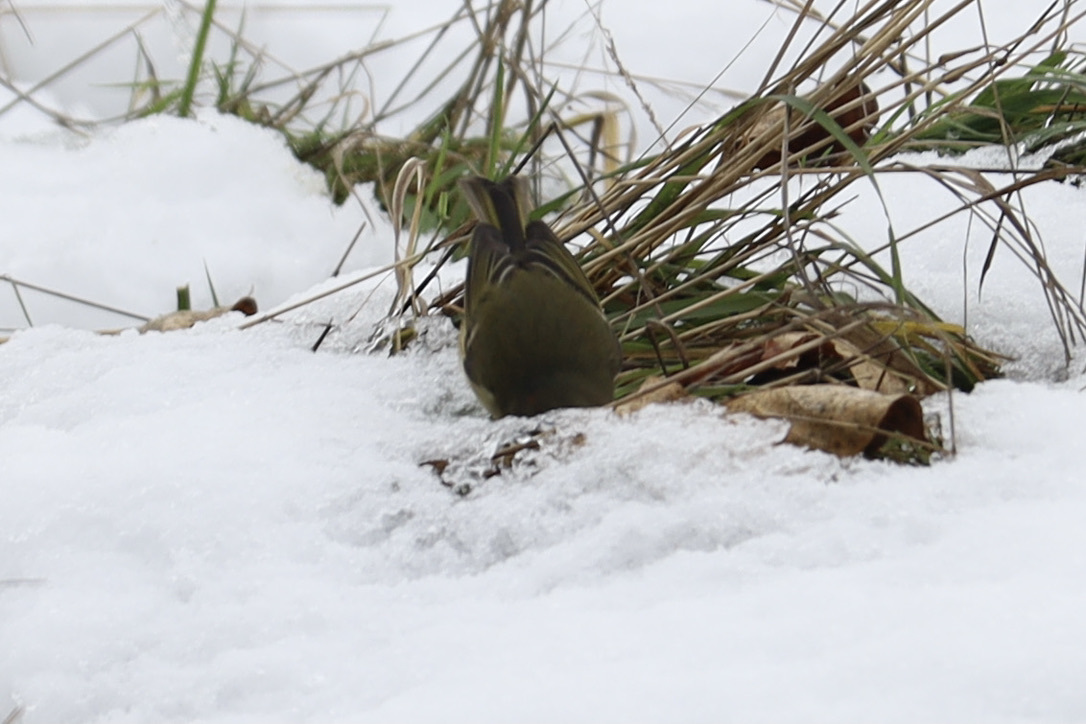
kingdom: Animalia
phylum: Chordata
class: Aves
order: Passeriformes
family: Regulidae
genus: Regulus
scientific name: Regulus calendula
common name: Ruby-crowned kinglet
